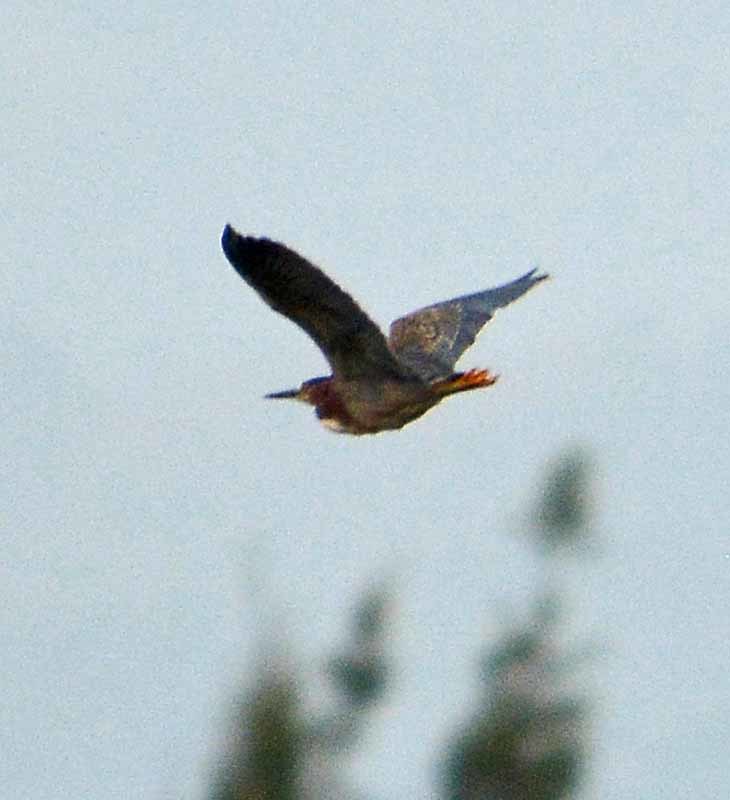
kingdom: Animalia
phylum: Chordata
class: Aves
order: Pelecaniformes
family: Ardeidae
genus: Butorides
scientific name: Butorides virescens
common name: Green heron
